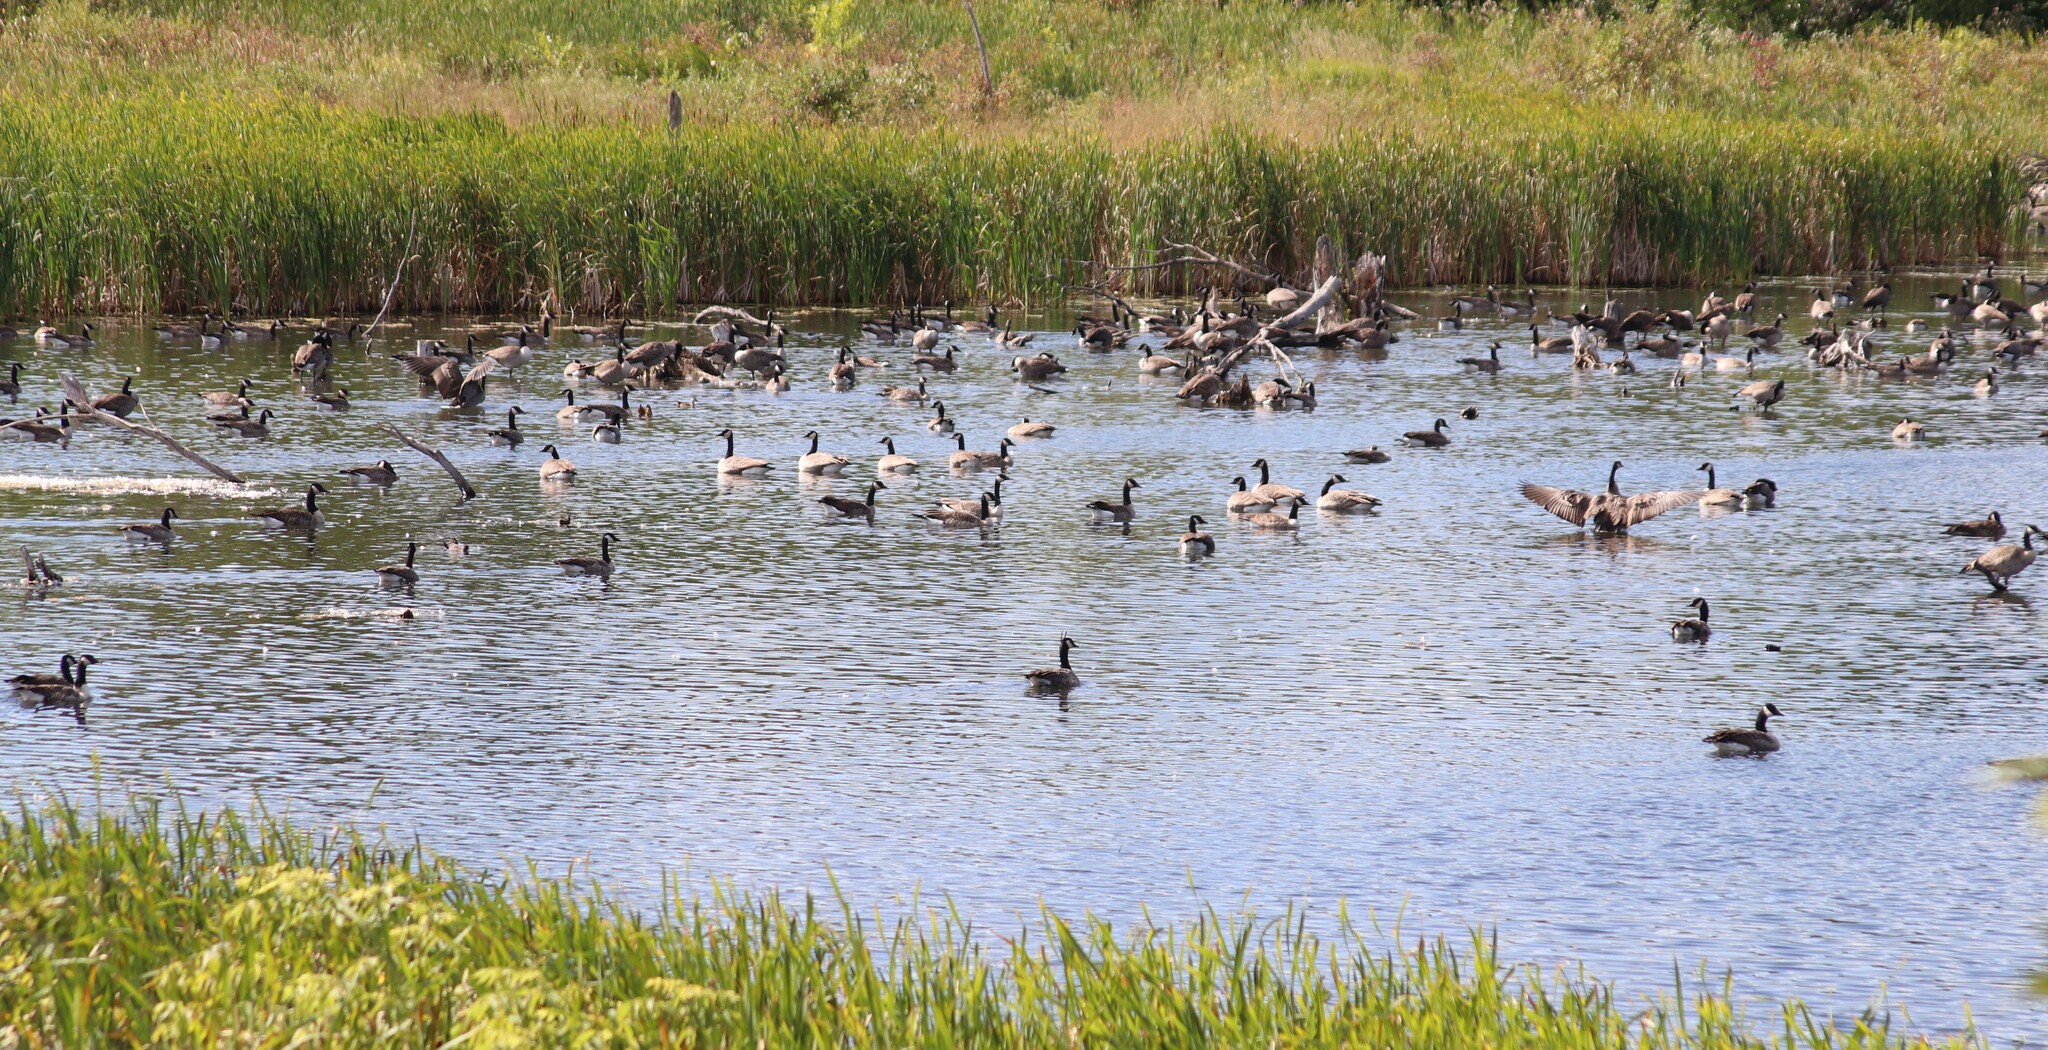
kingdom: Animalia
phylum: Chordata
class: Aves
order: Anseriformes
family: Anatidae
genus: Branta
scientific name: Branta canadensis
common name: Canada goose
